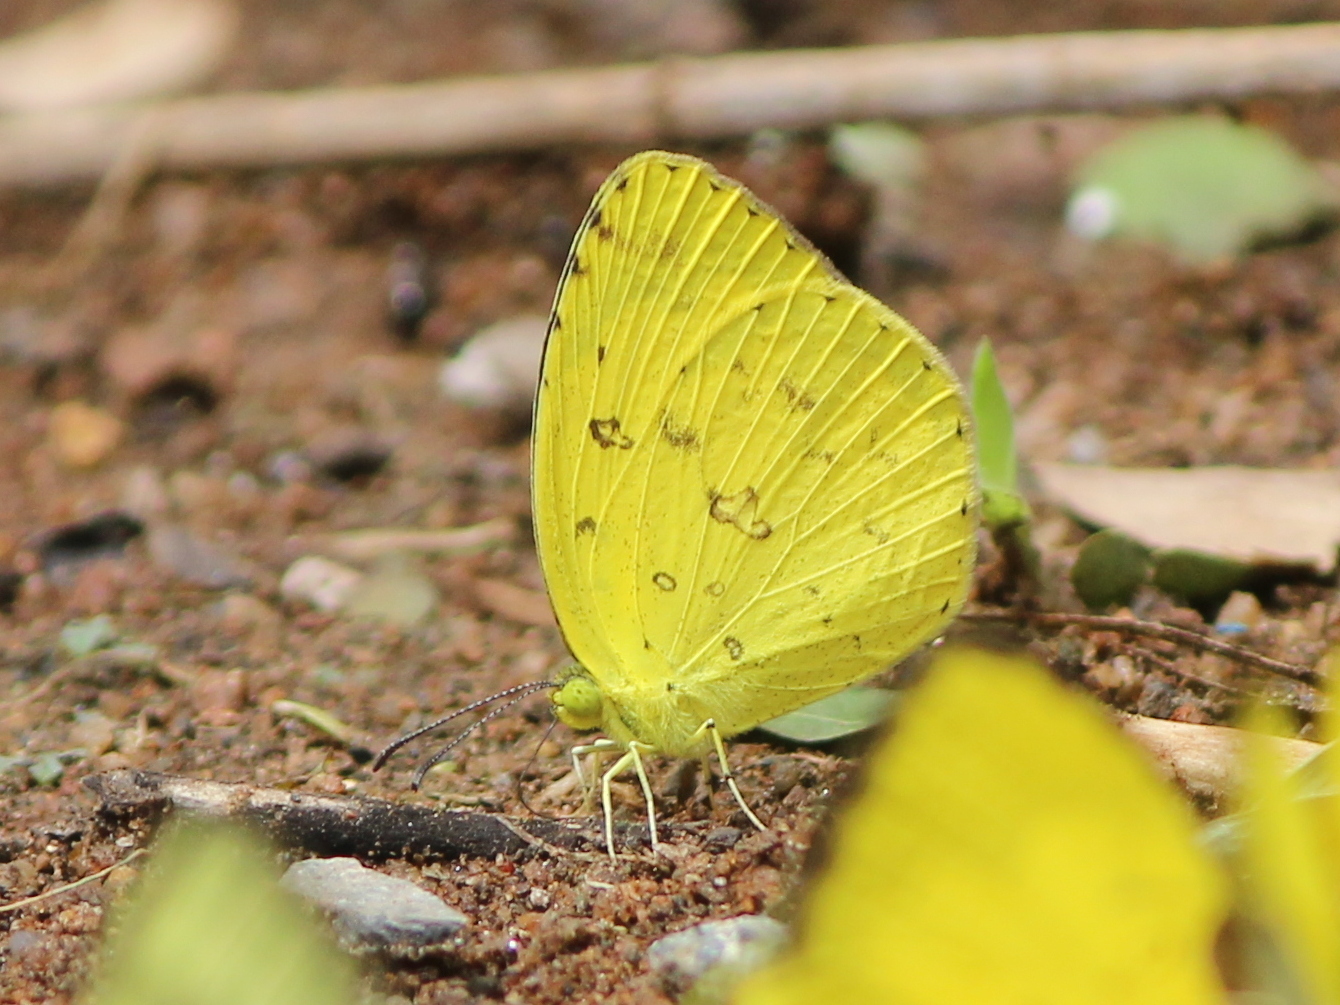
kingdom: Animalia
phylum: Arthropoda
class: Insecta
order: Lepidoptera
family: Pieridae
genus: Eurema
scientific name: Eurema hecabe
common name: Pale grass yellow
